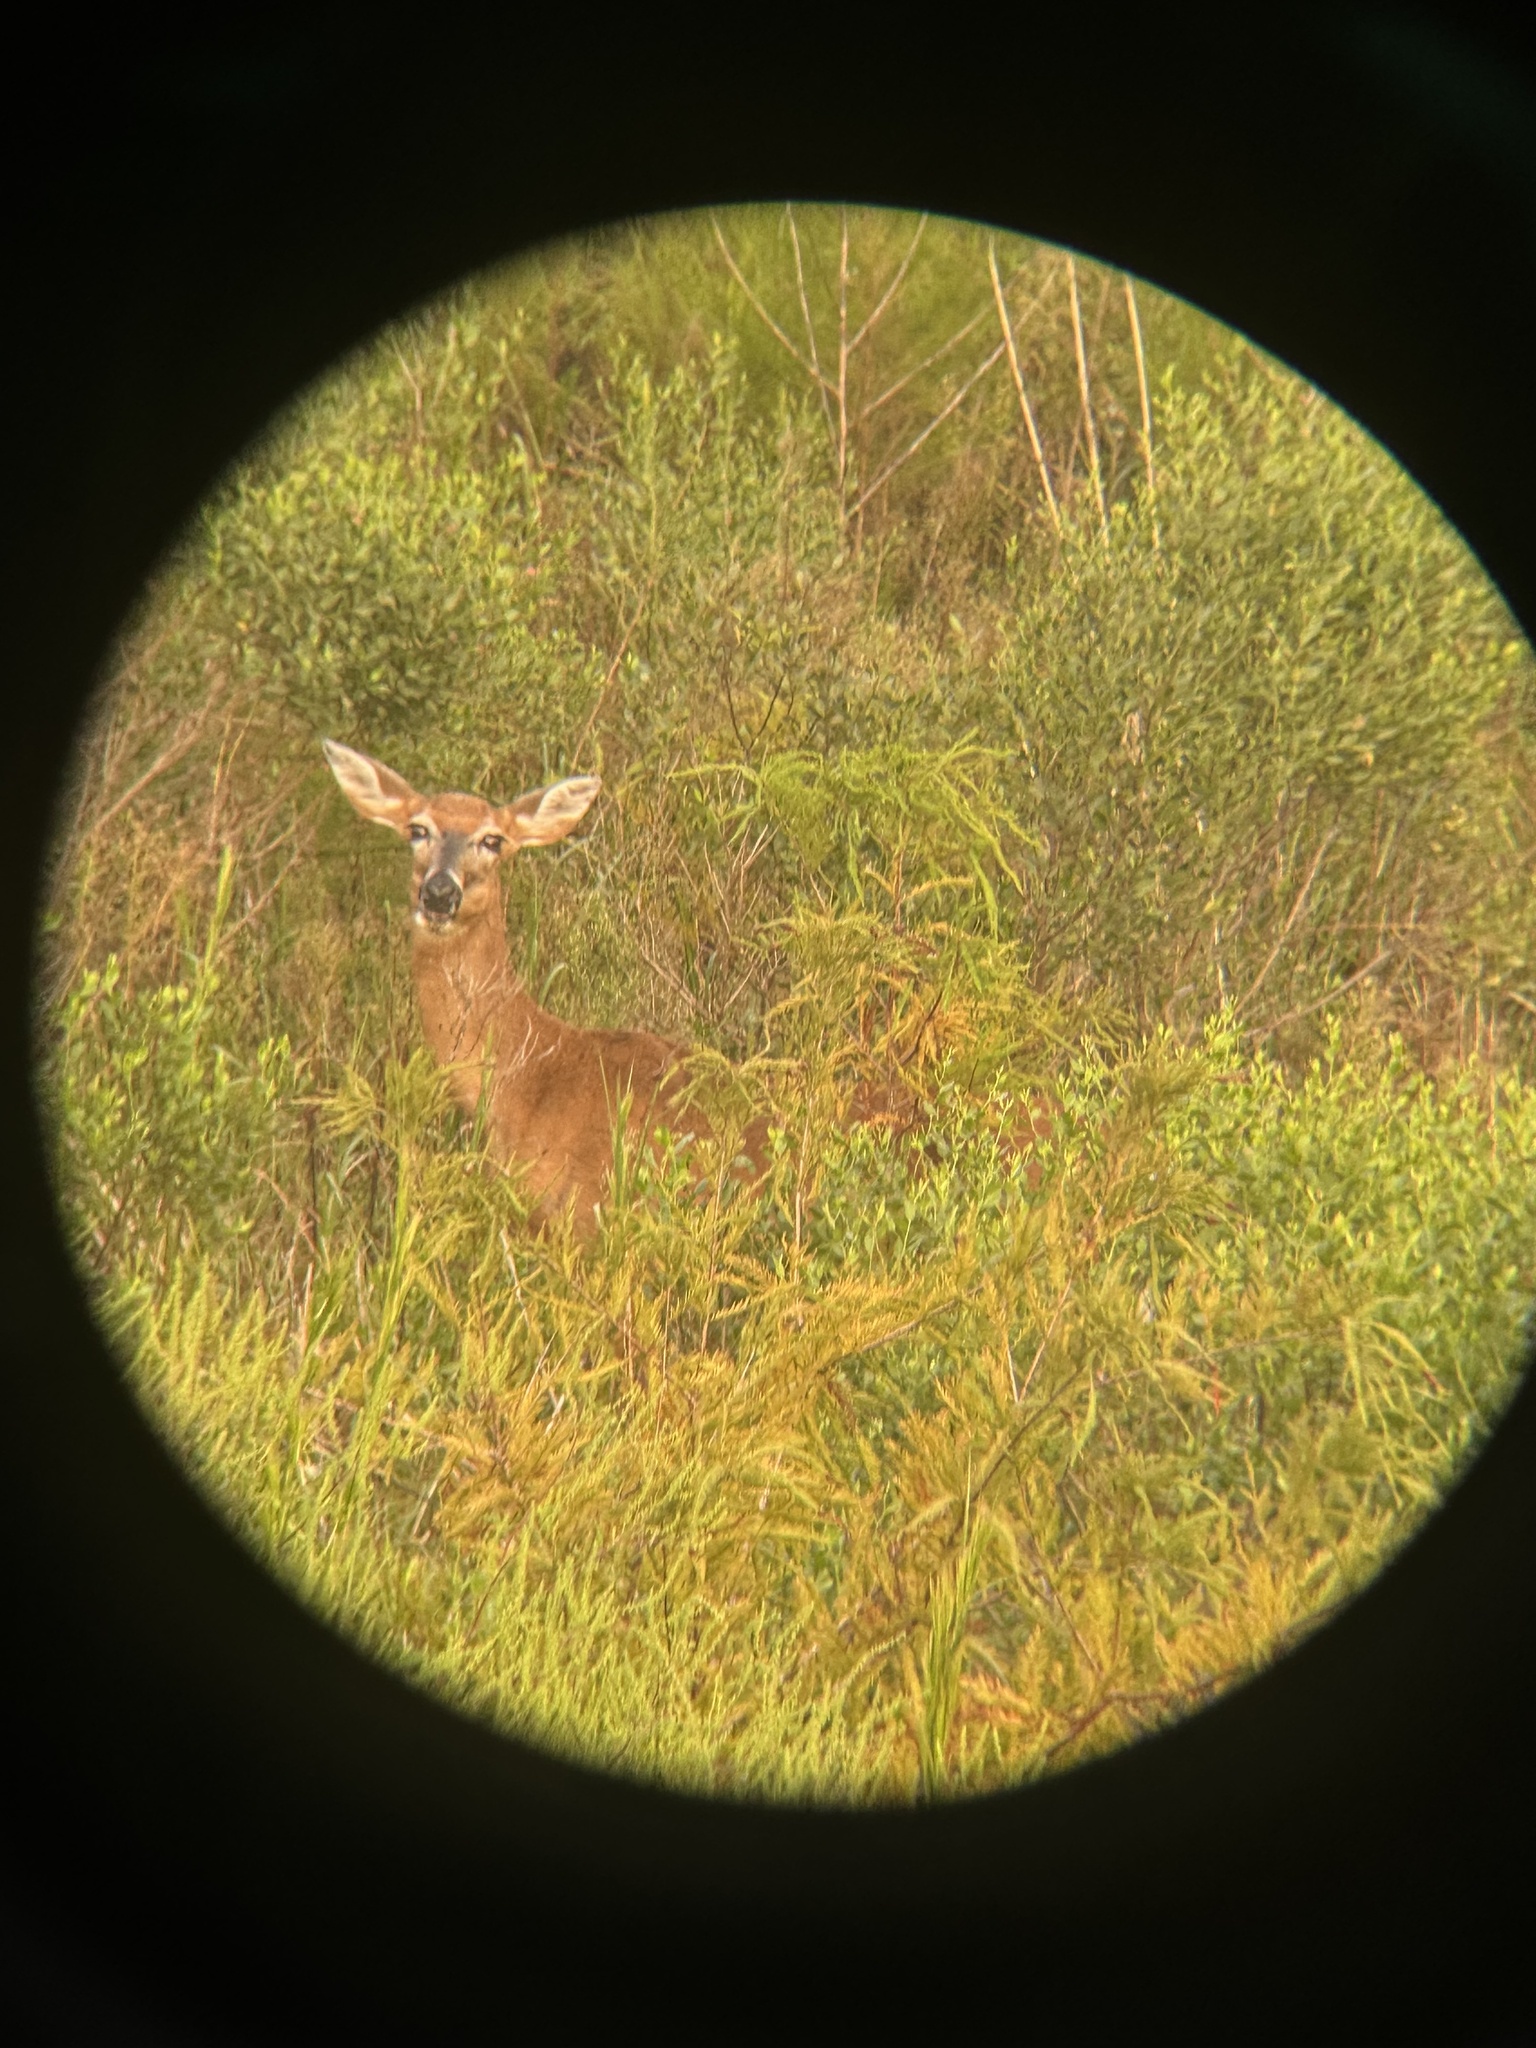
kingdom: Animalia
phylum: Chordata
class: Mammalia
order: Artiodactyla
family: Cervidae
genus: Odocoileus
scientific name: Odocoileus virginianus
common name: White-tailed deer
